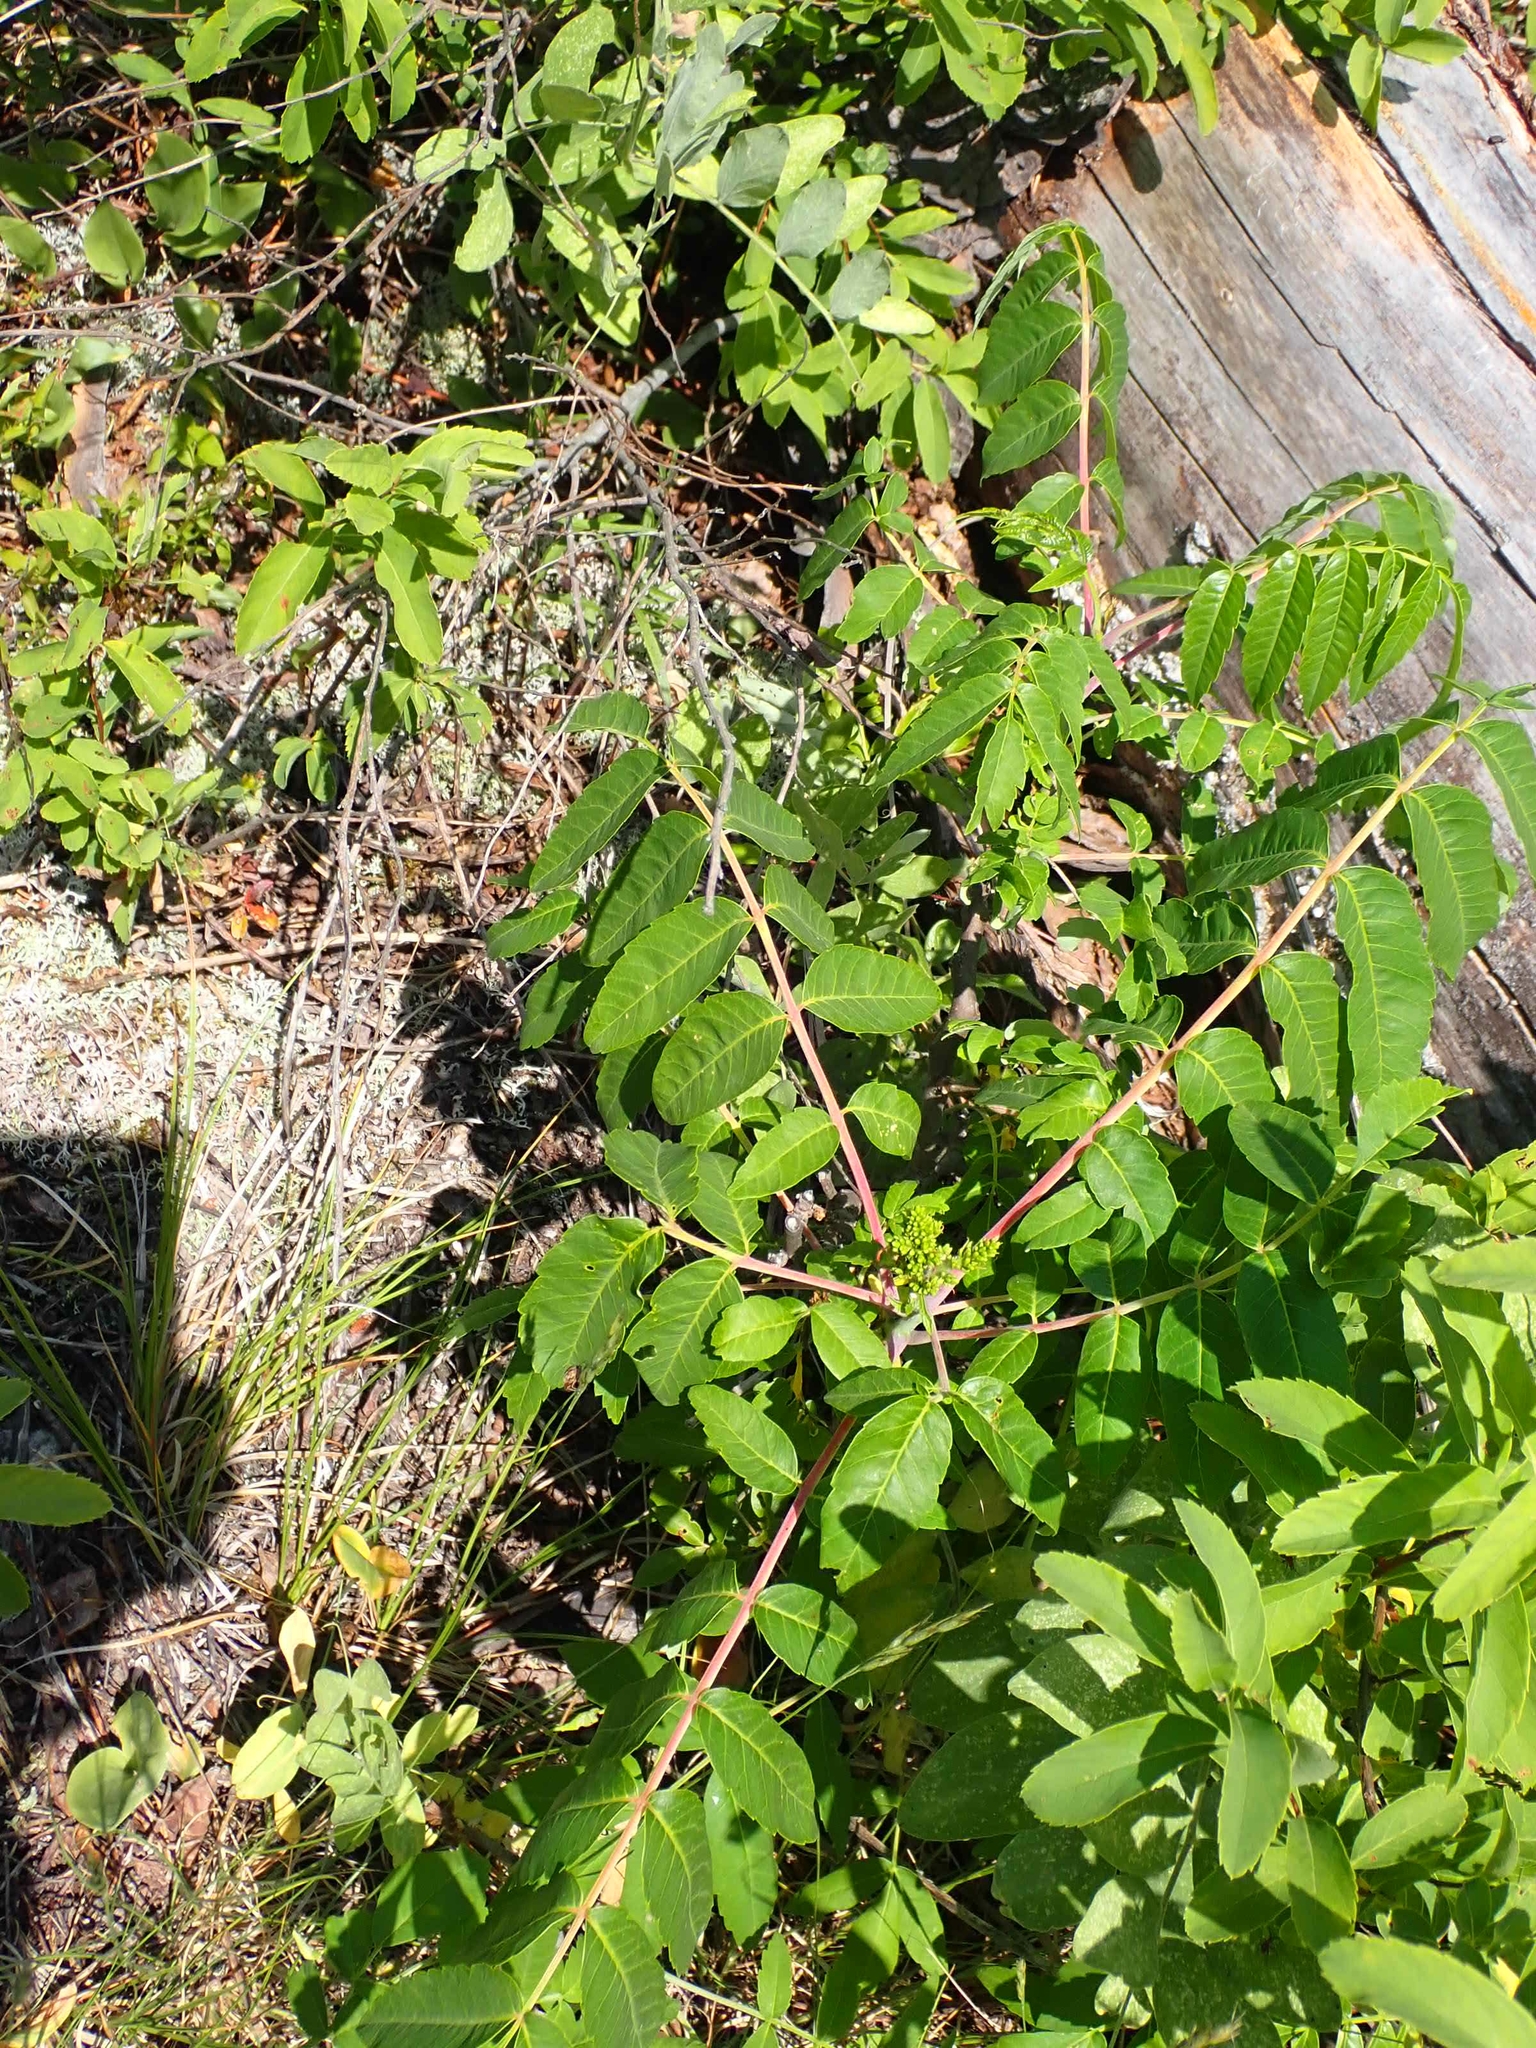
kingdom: Plantae
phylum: Tracheophyta
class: Magnoliopsida
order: Sapindales
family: Anacardiaceae
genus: Rhus
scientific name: Rhus glabra
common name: Scarlet sumac
